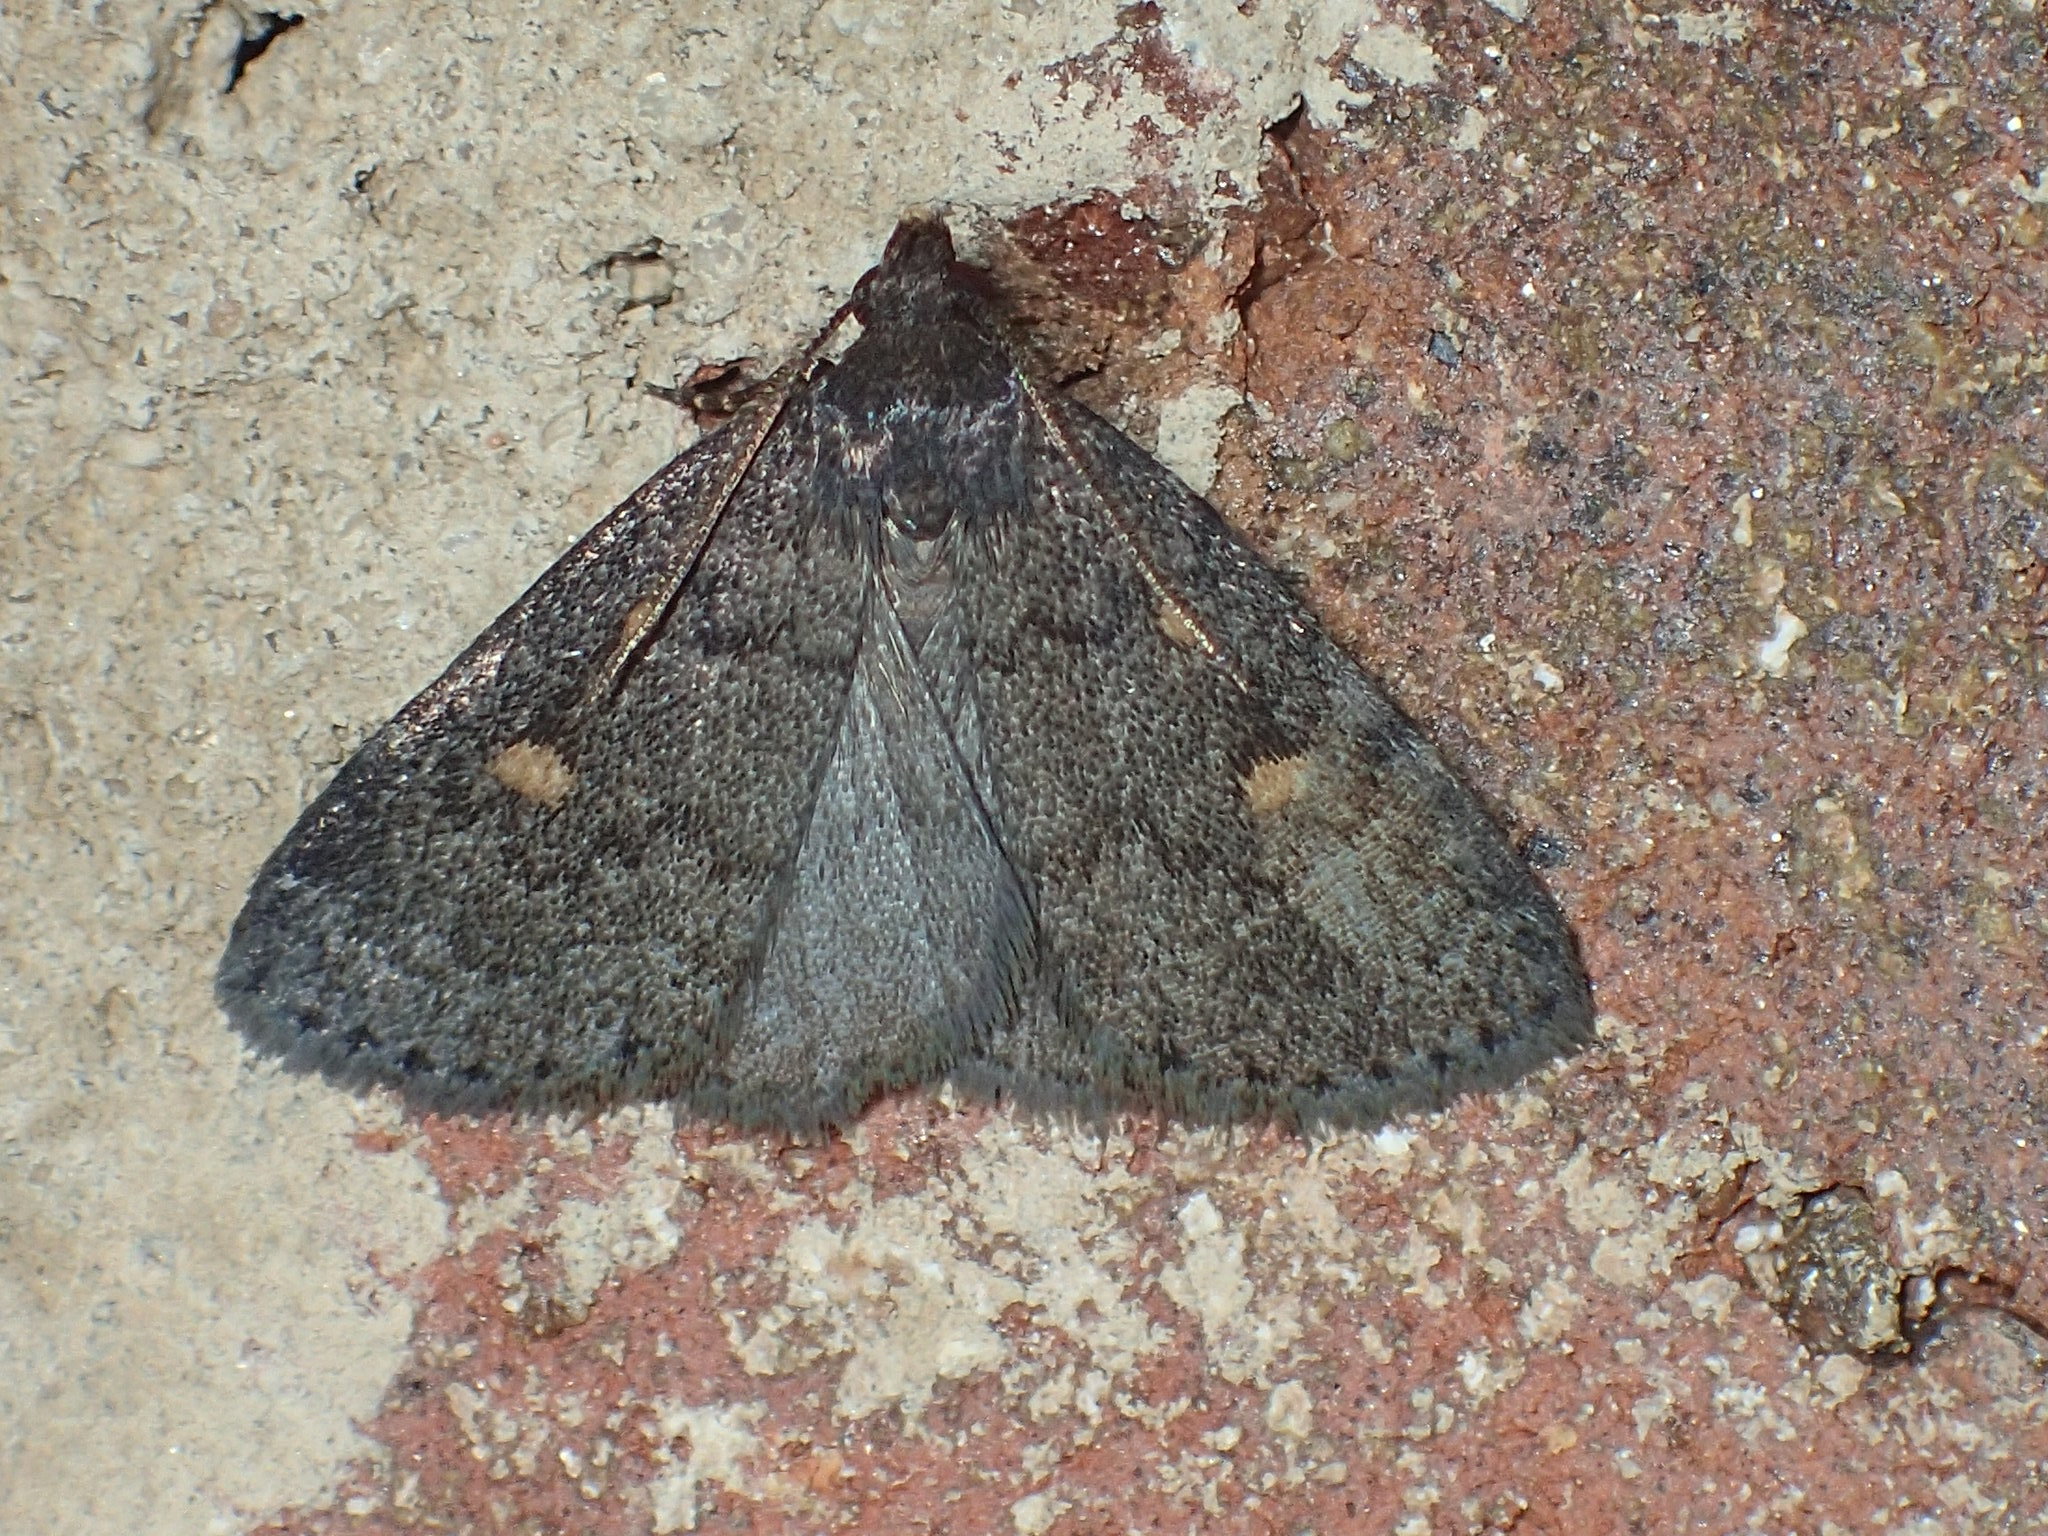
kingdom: Animalia
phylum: Arthropoda
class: Insecta
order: Lepidoptera
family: Erebidae
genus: Idia
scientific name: Idia diminuendis
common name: Orange-spotted idia moth
